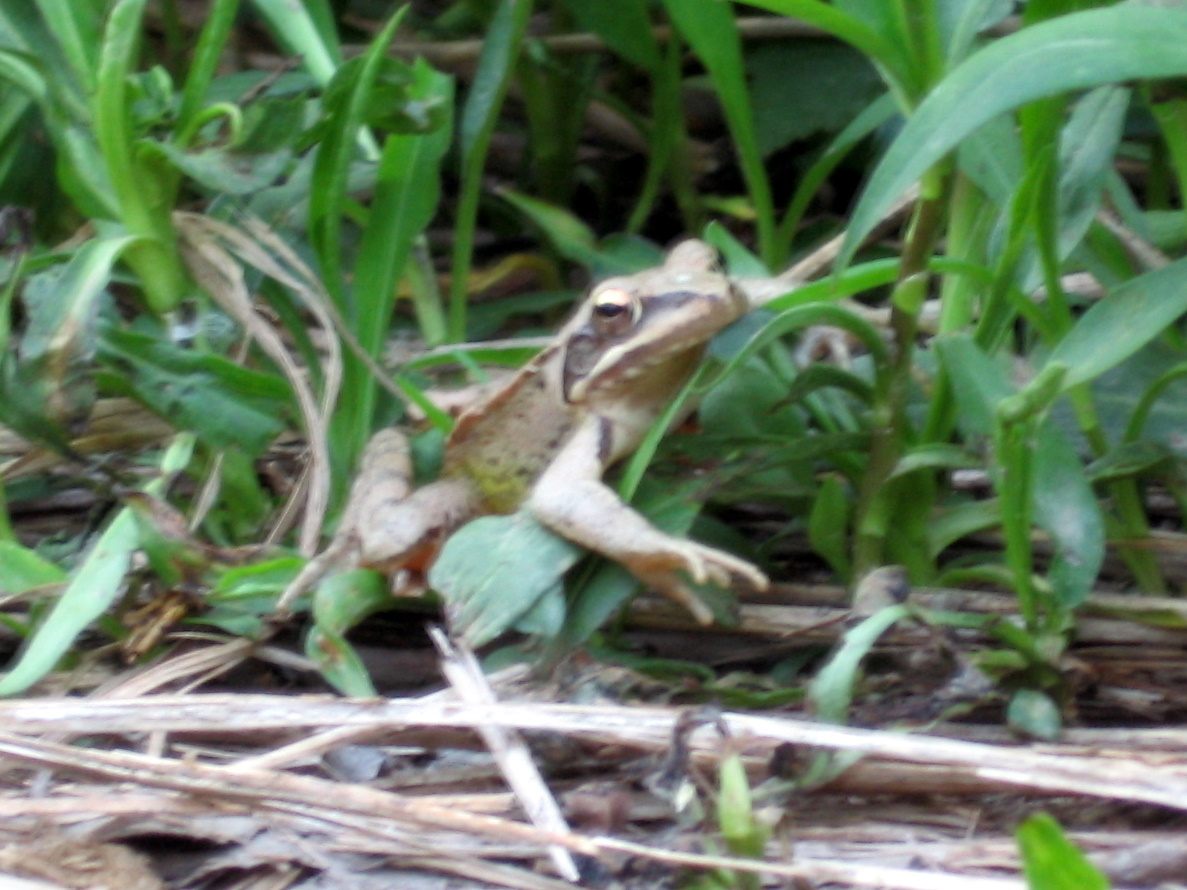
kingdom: Animalia
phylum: Chordata
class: Amphibia
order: Anura
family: Ranidae
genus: Rana
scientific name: Rana dalmatina
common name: Agile frog
